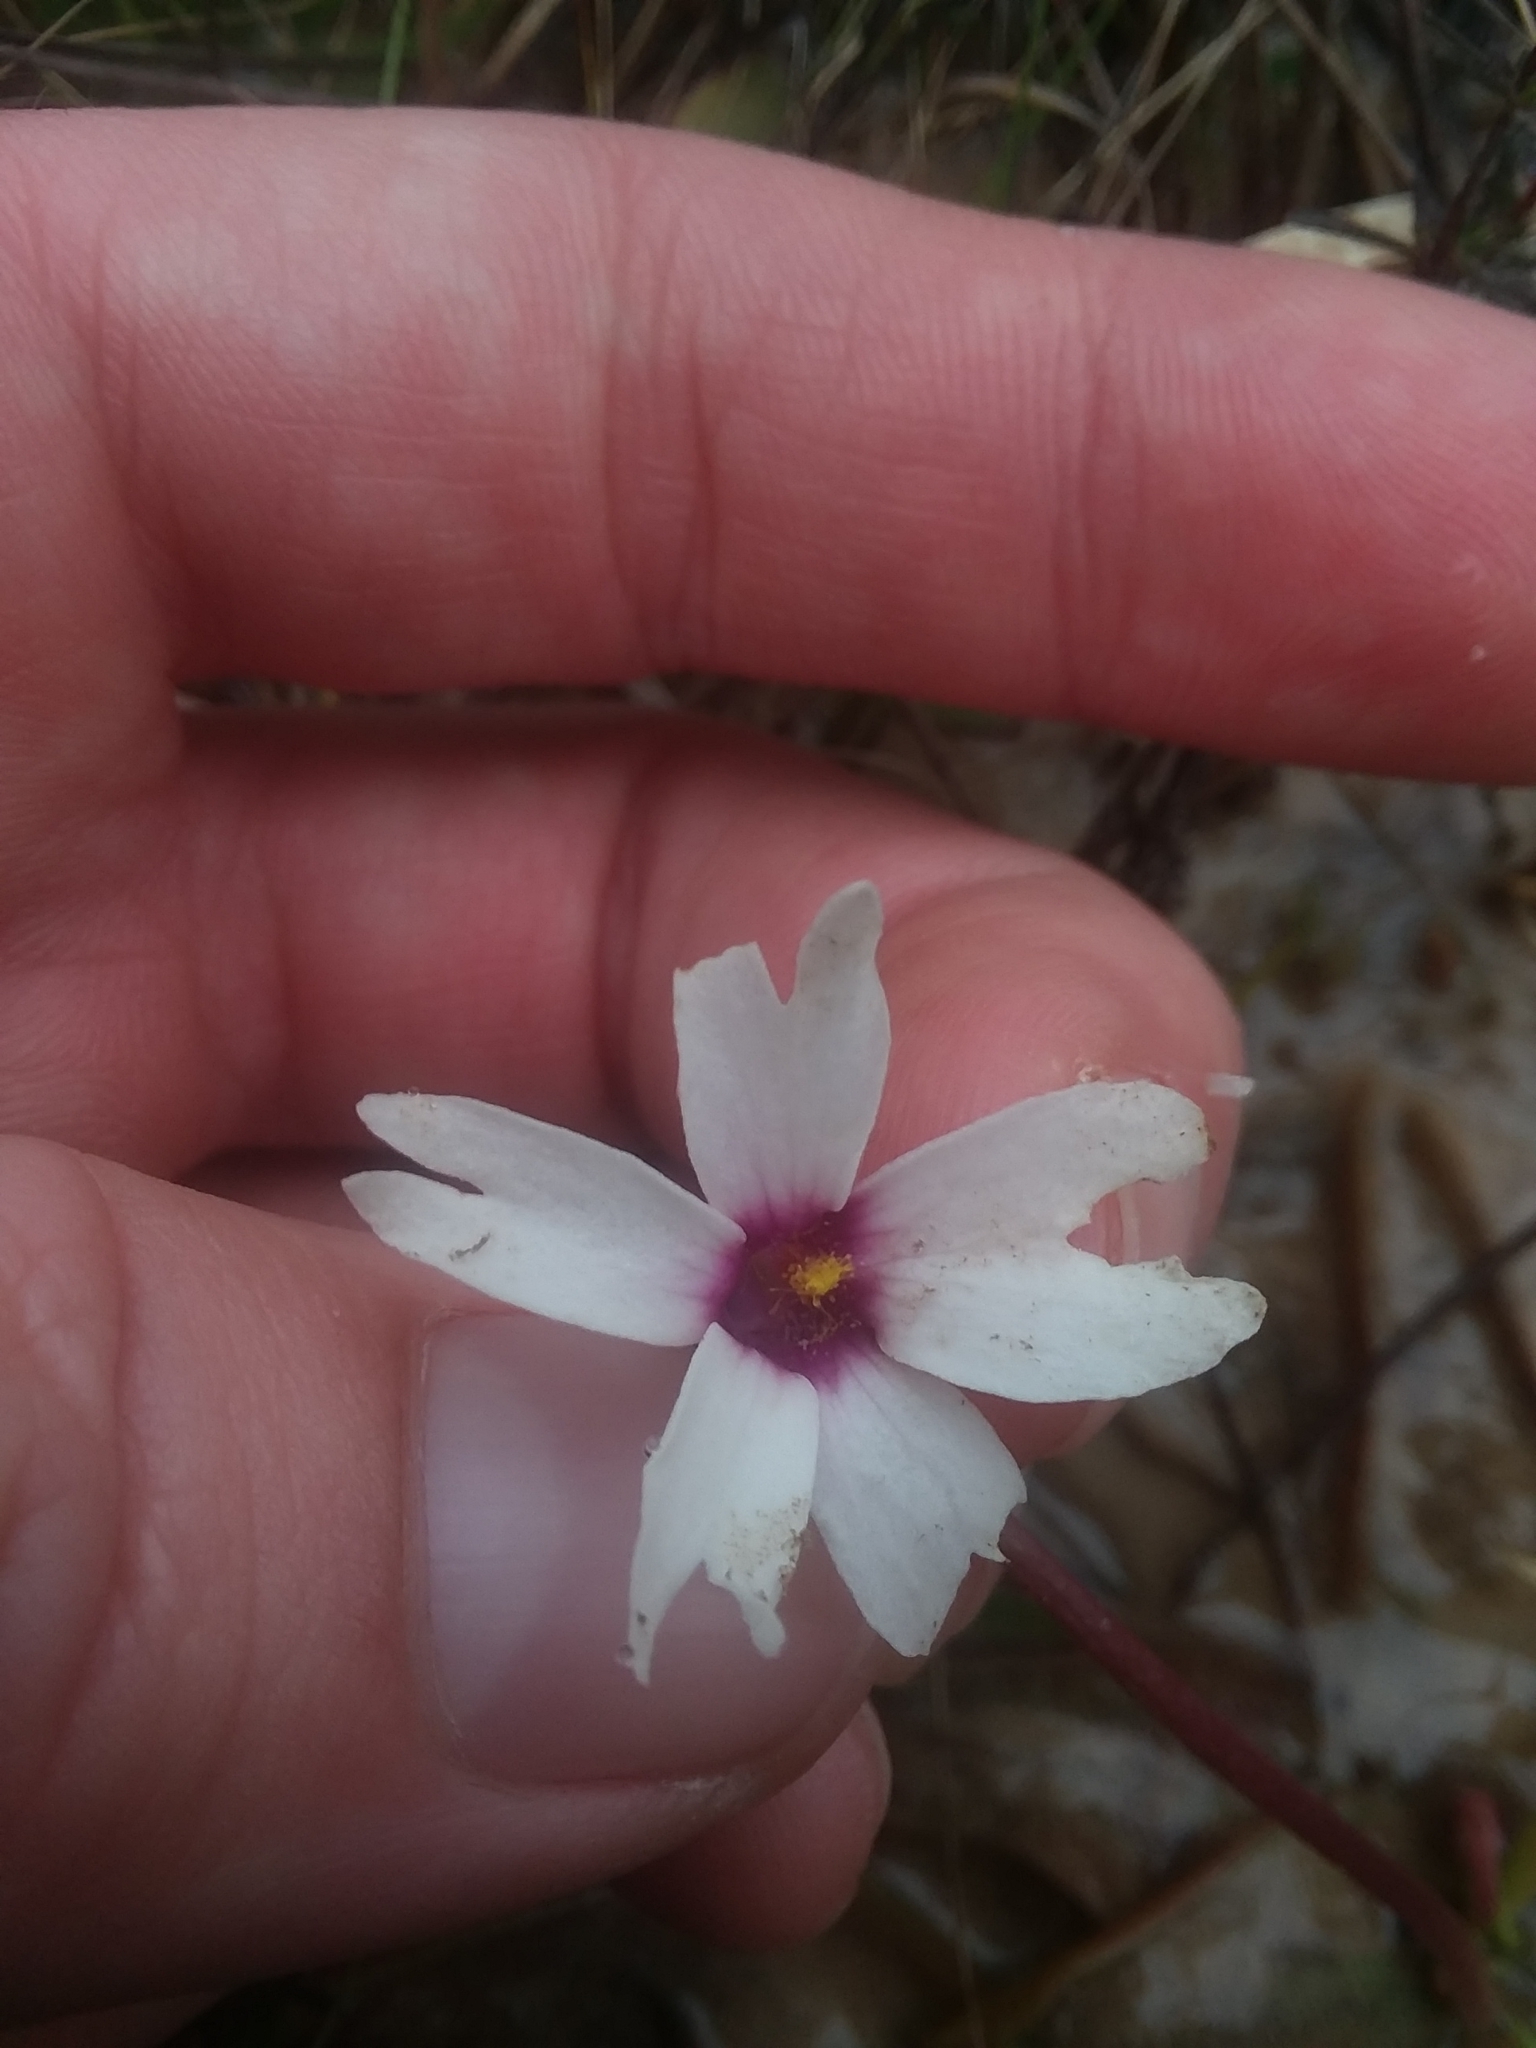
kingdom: Plantae
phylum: Tracheophyta
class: Magnoliopsida
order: Lamiales
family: Lentibulariaceae
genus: Pinguicula
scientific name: Pinguicula planifolia
